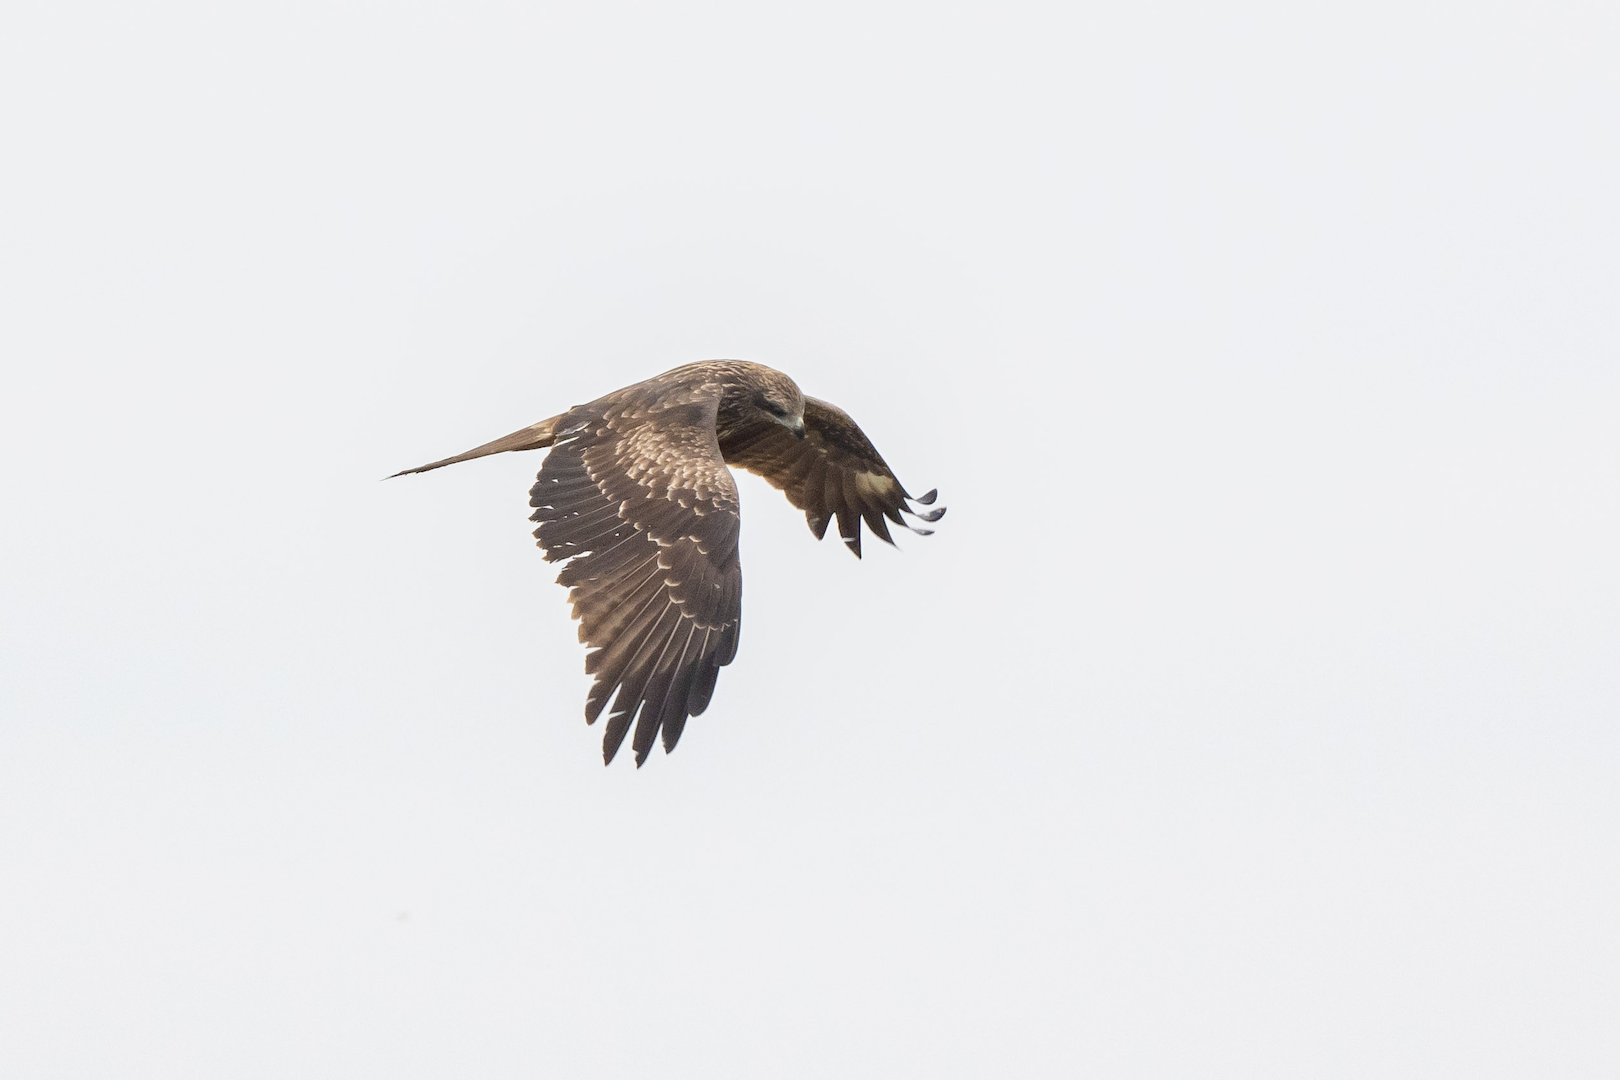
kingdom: Animalia
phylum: Chordata
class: Aves
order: Accipitriformes
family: Accipitridae
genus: Milvus
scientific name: Milvus migrans
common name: Black kite
